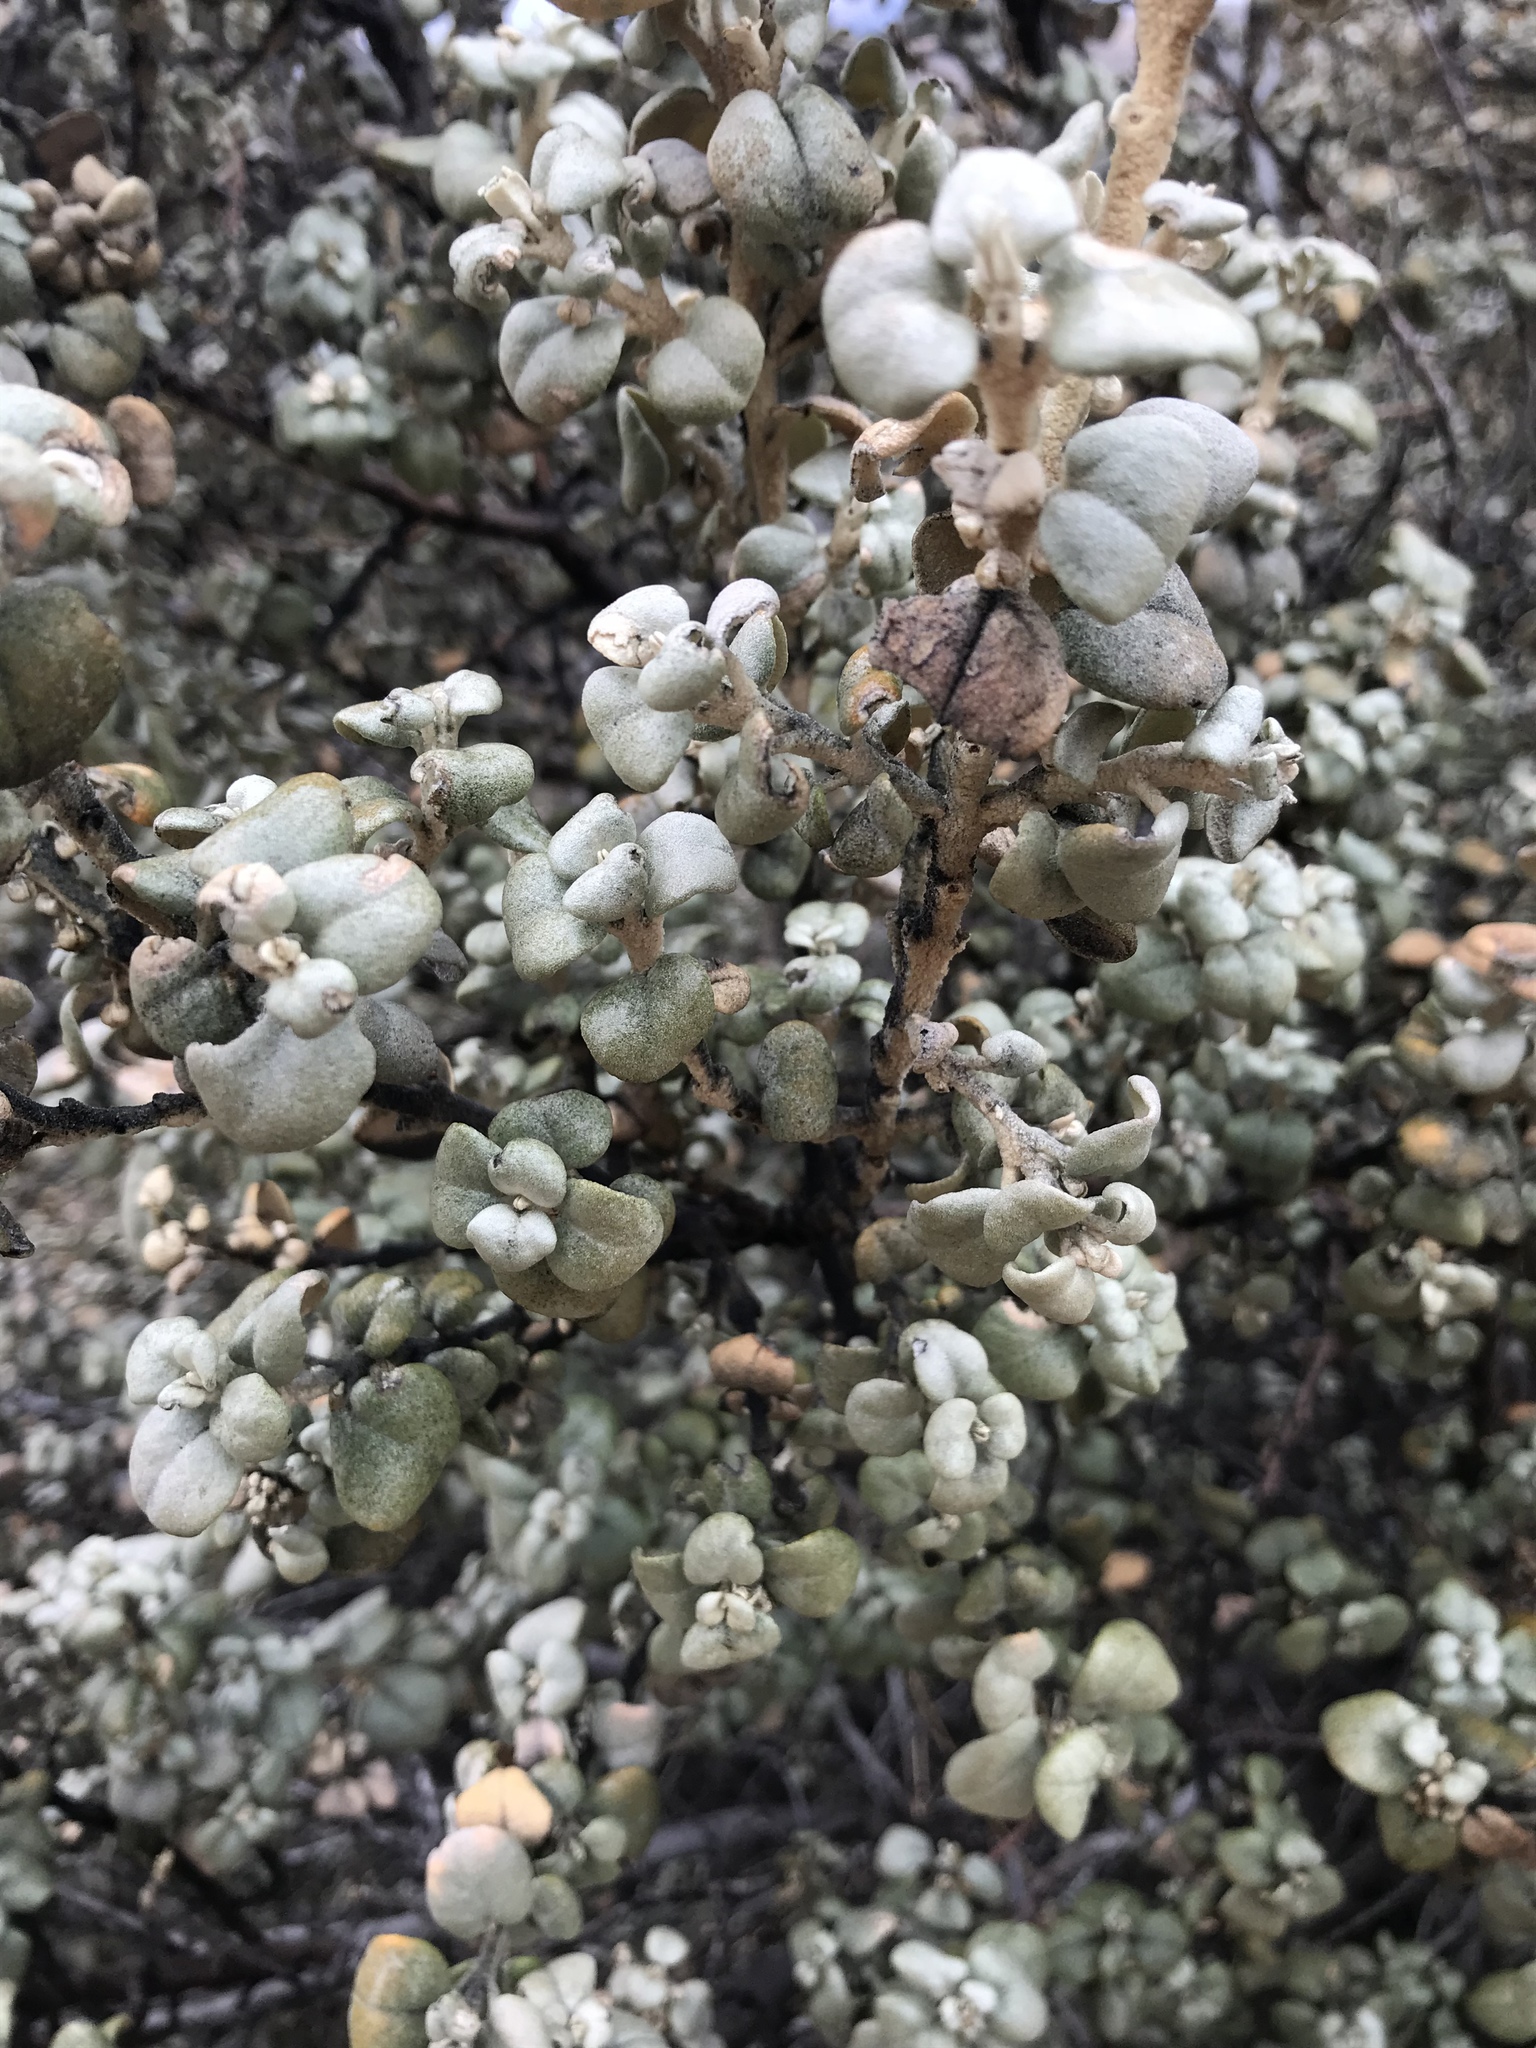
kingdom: Plantae
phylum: Tracheophyta
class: Magnoliopsida
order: Rosales
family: Elaeagnaceae
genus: Shepherdia
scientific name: Shepherdia rotundifolia
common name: Silverscale
